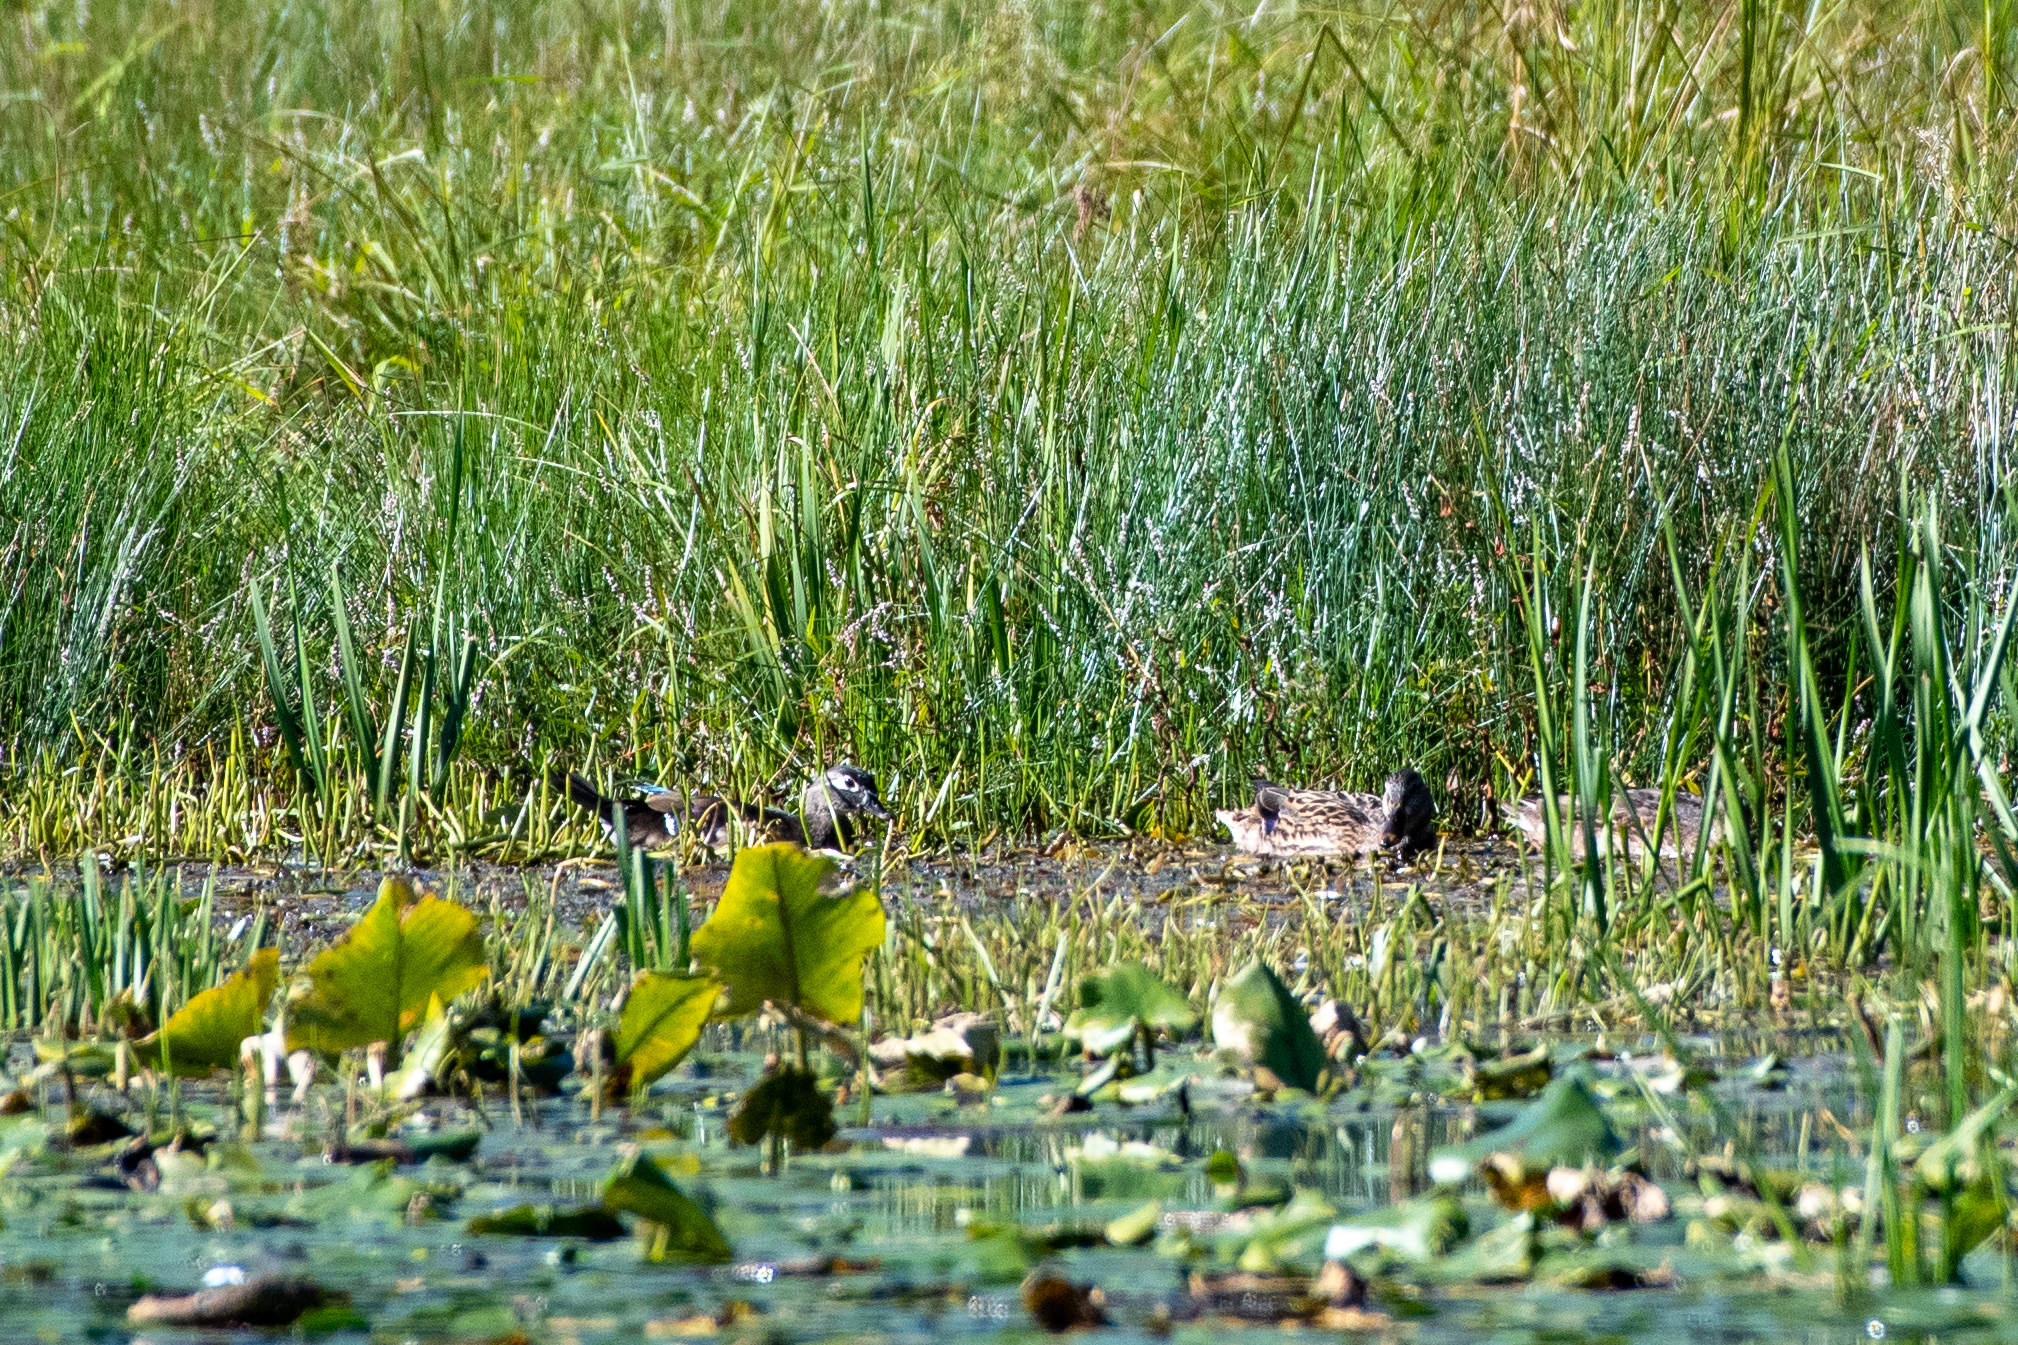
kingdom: Animalia
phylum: Chordata
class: Aves
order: Anseriformes
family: Anatidae
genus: Aix
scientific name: Aix sponsa
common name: Wood duck
